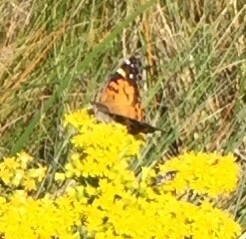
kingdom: Animalia
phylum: Arthropoda
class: Insecta
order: Lepidoptera
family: Nymphalidae
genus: Vanessa
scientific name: Vanessa virginiensis
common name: American lady
